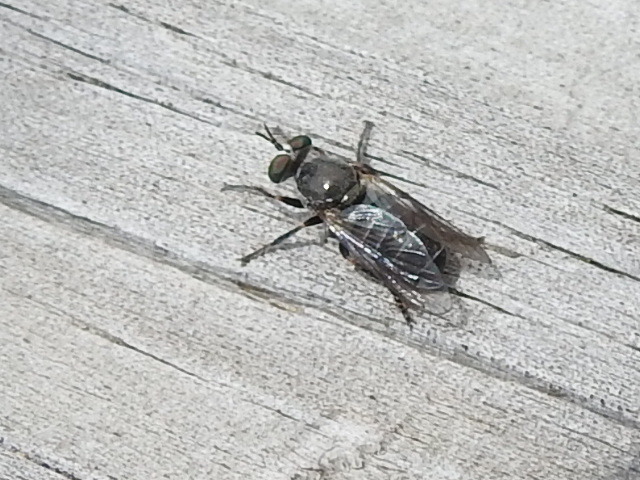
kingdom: Animalia
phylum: Arthropoda
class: Insecta
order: Diptera
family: Asilidae
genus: Atomosia
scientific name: Atomosia
